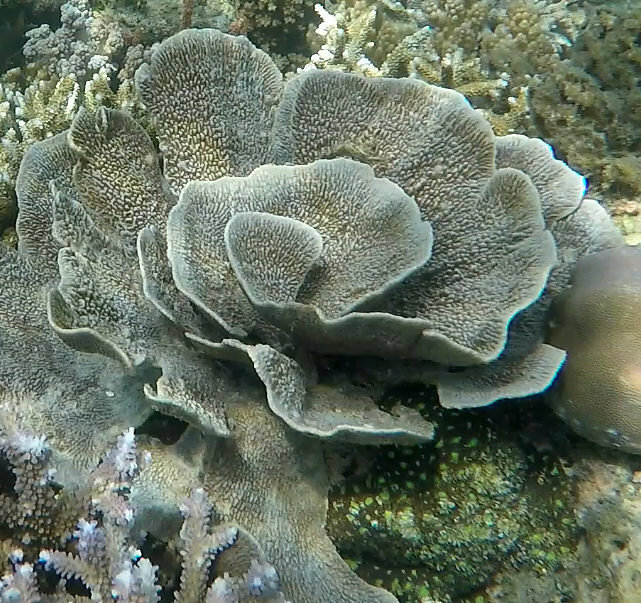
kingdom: Animalia
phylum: Porifera
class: Demospongiae
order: Dictyoceratida
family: Thorectidae
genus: Phyllospongia
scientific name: Phyllospongia foliascens
